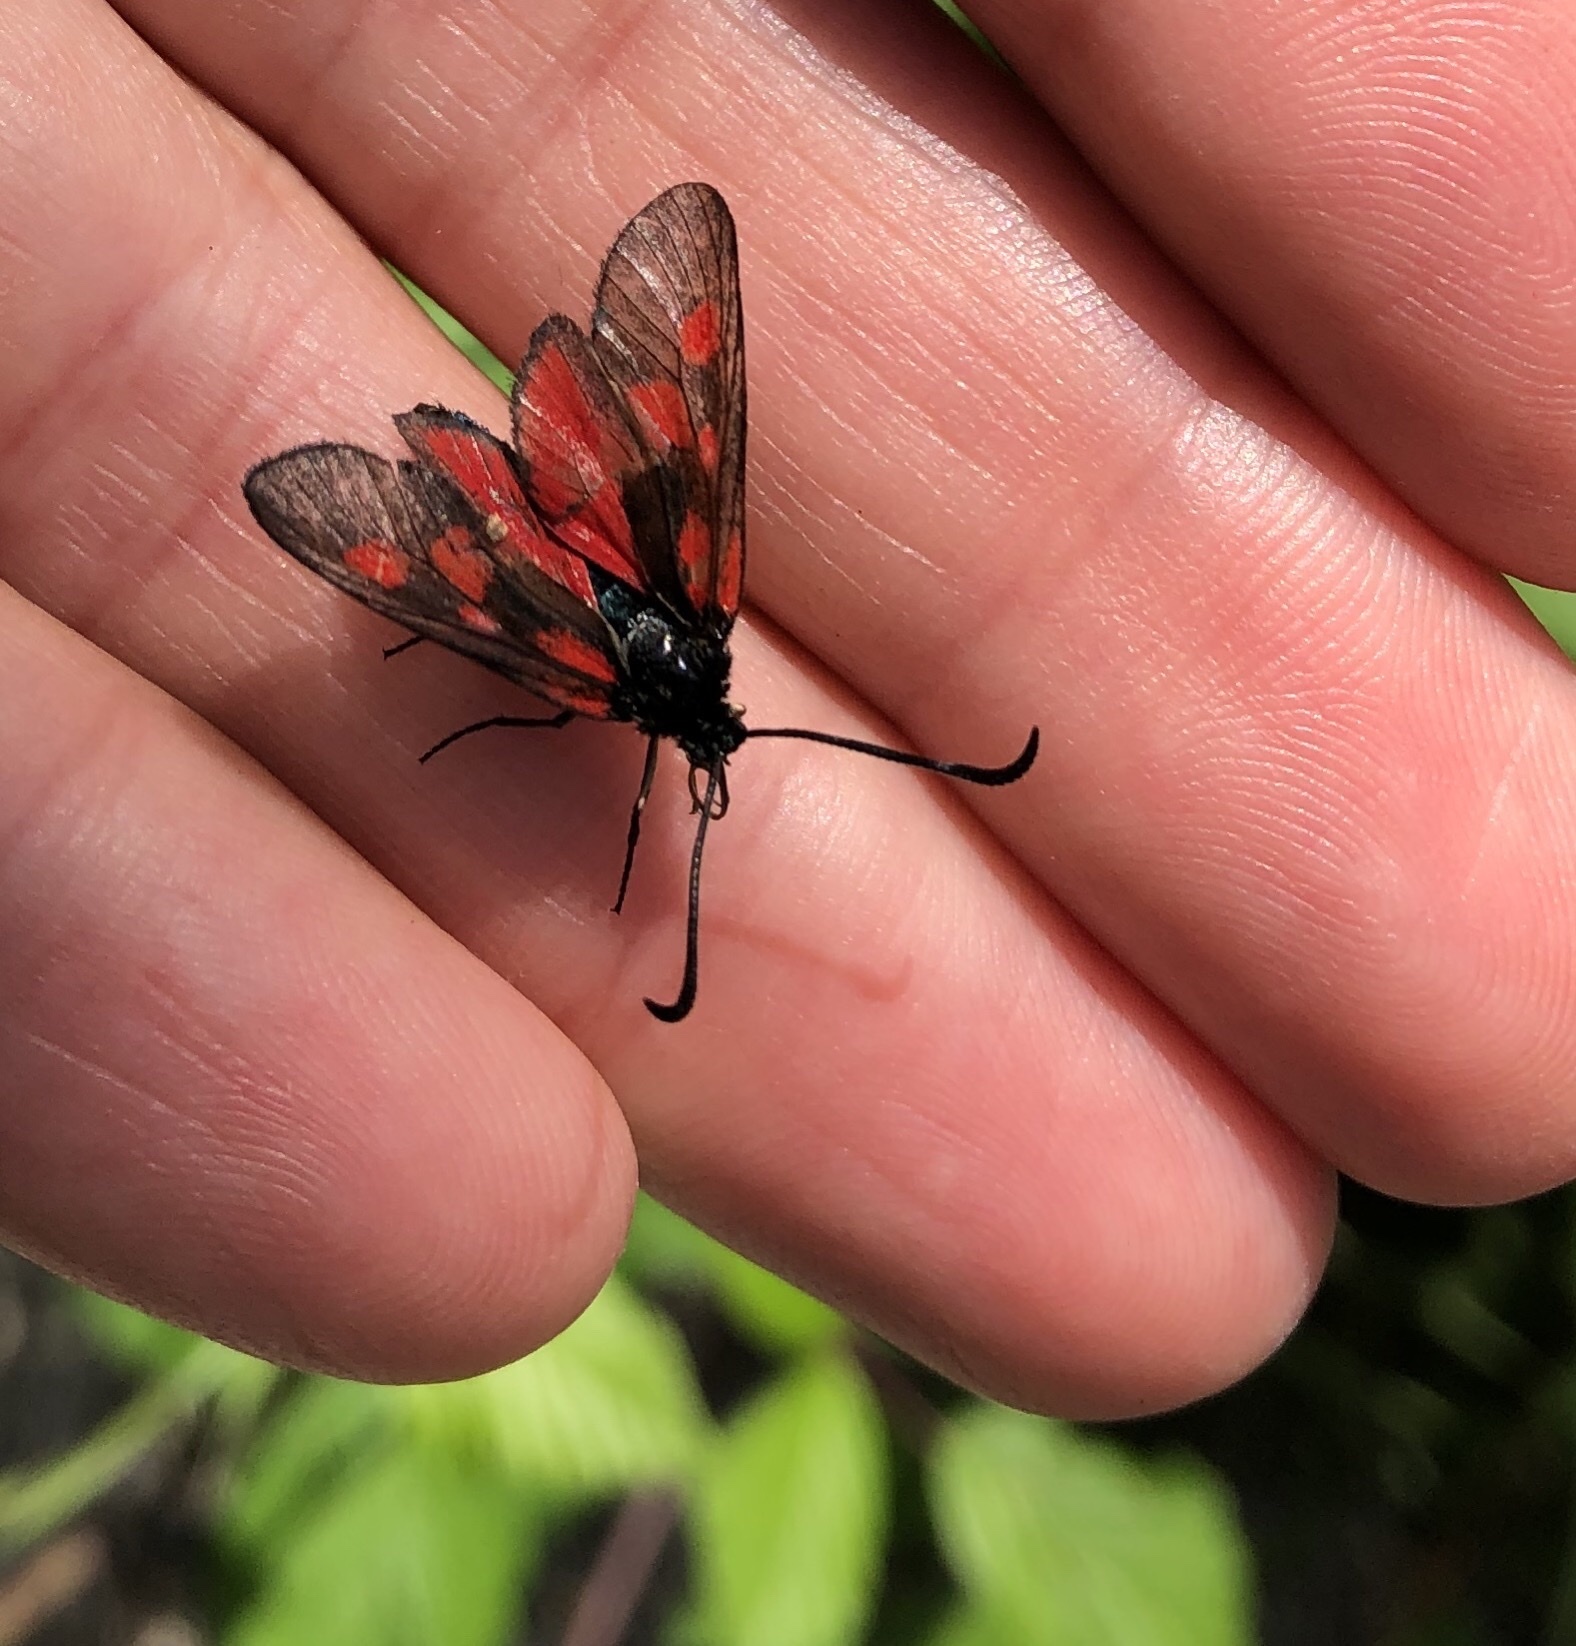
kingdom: Animalia
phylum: Arthropoda
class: Insecta
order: Lepidoptera
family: Zygaenidae
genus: Zygaena
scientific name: Zygaena lonicerae
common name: Narrow-bordered five-spot burnet
